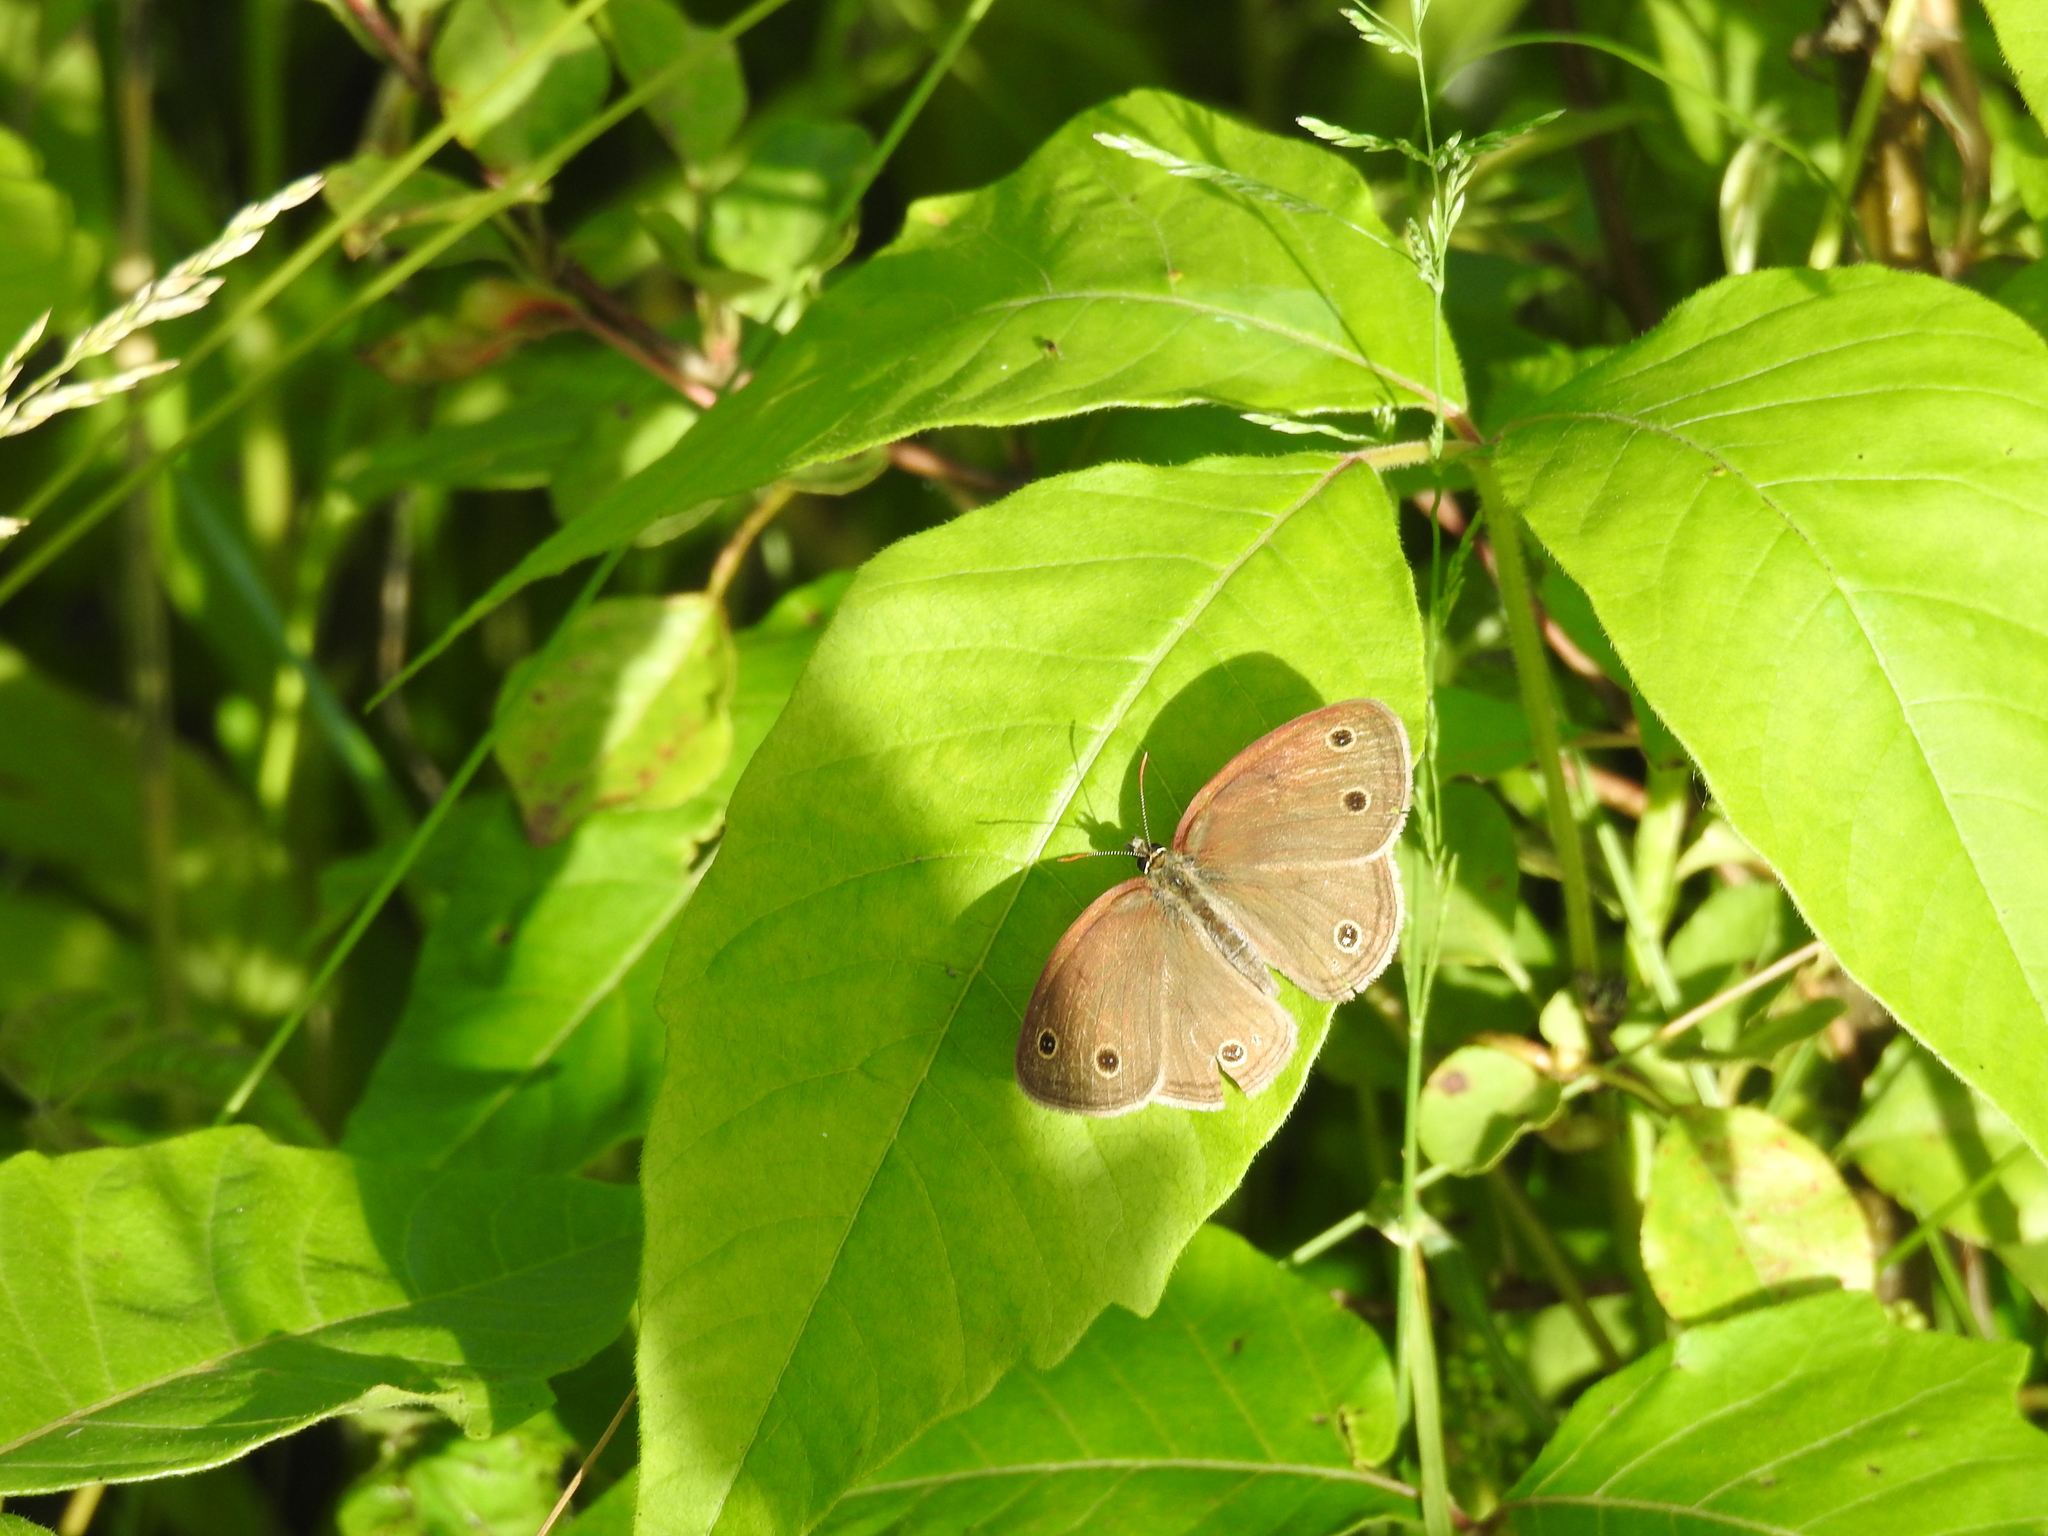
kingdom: Animalia
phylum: Arthropoda
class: Insecta
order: Lepidoptera
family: Nymphalidae
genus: Euptychia
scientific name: Euptychia cymela
